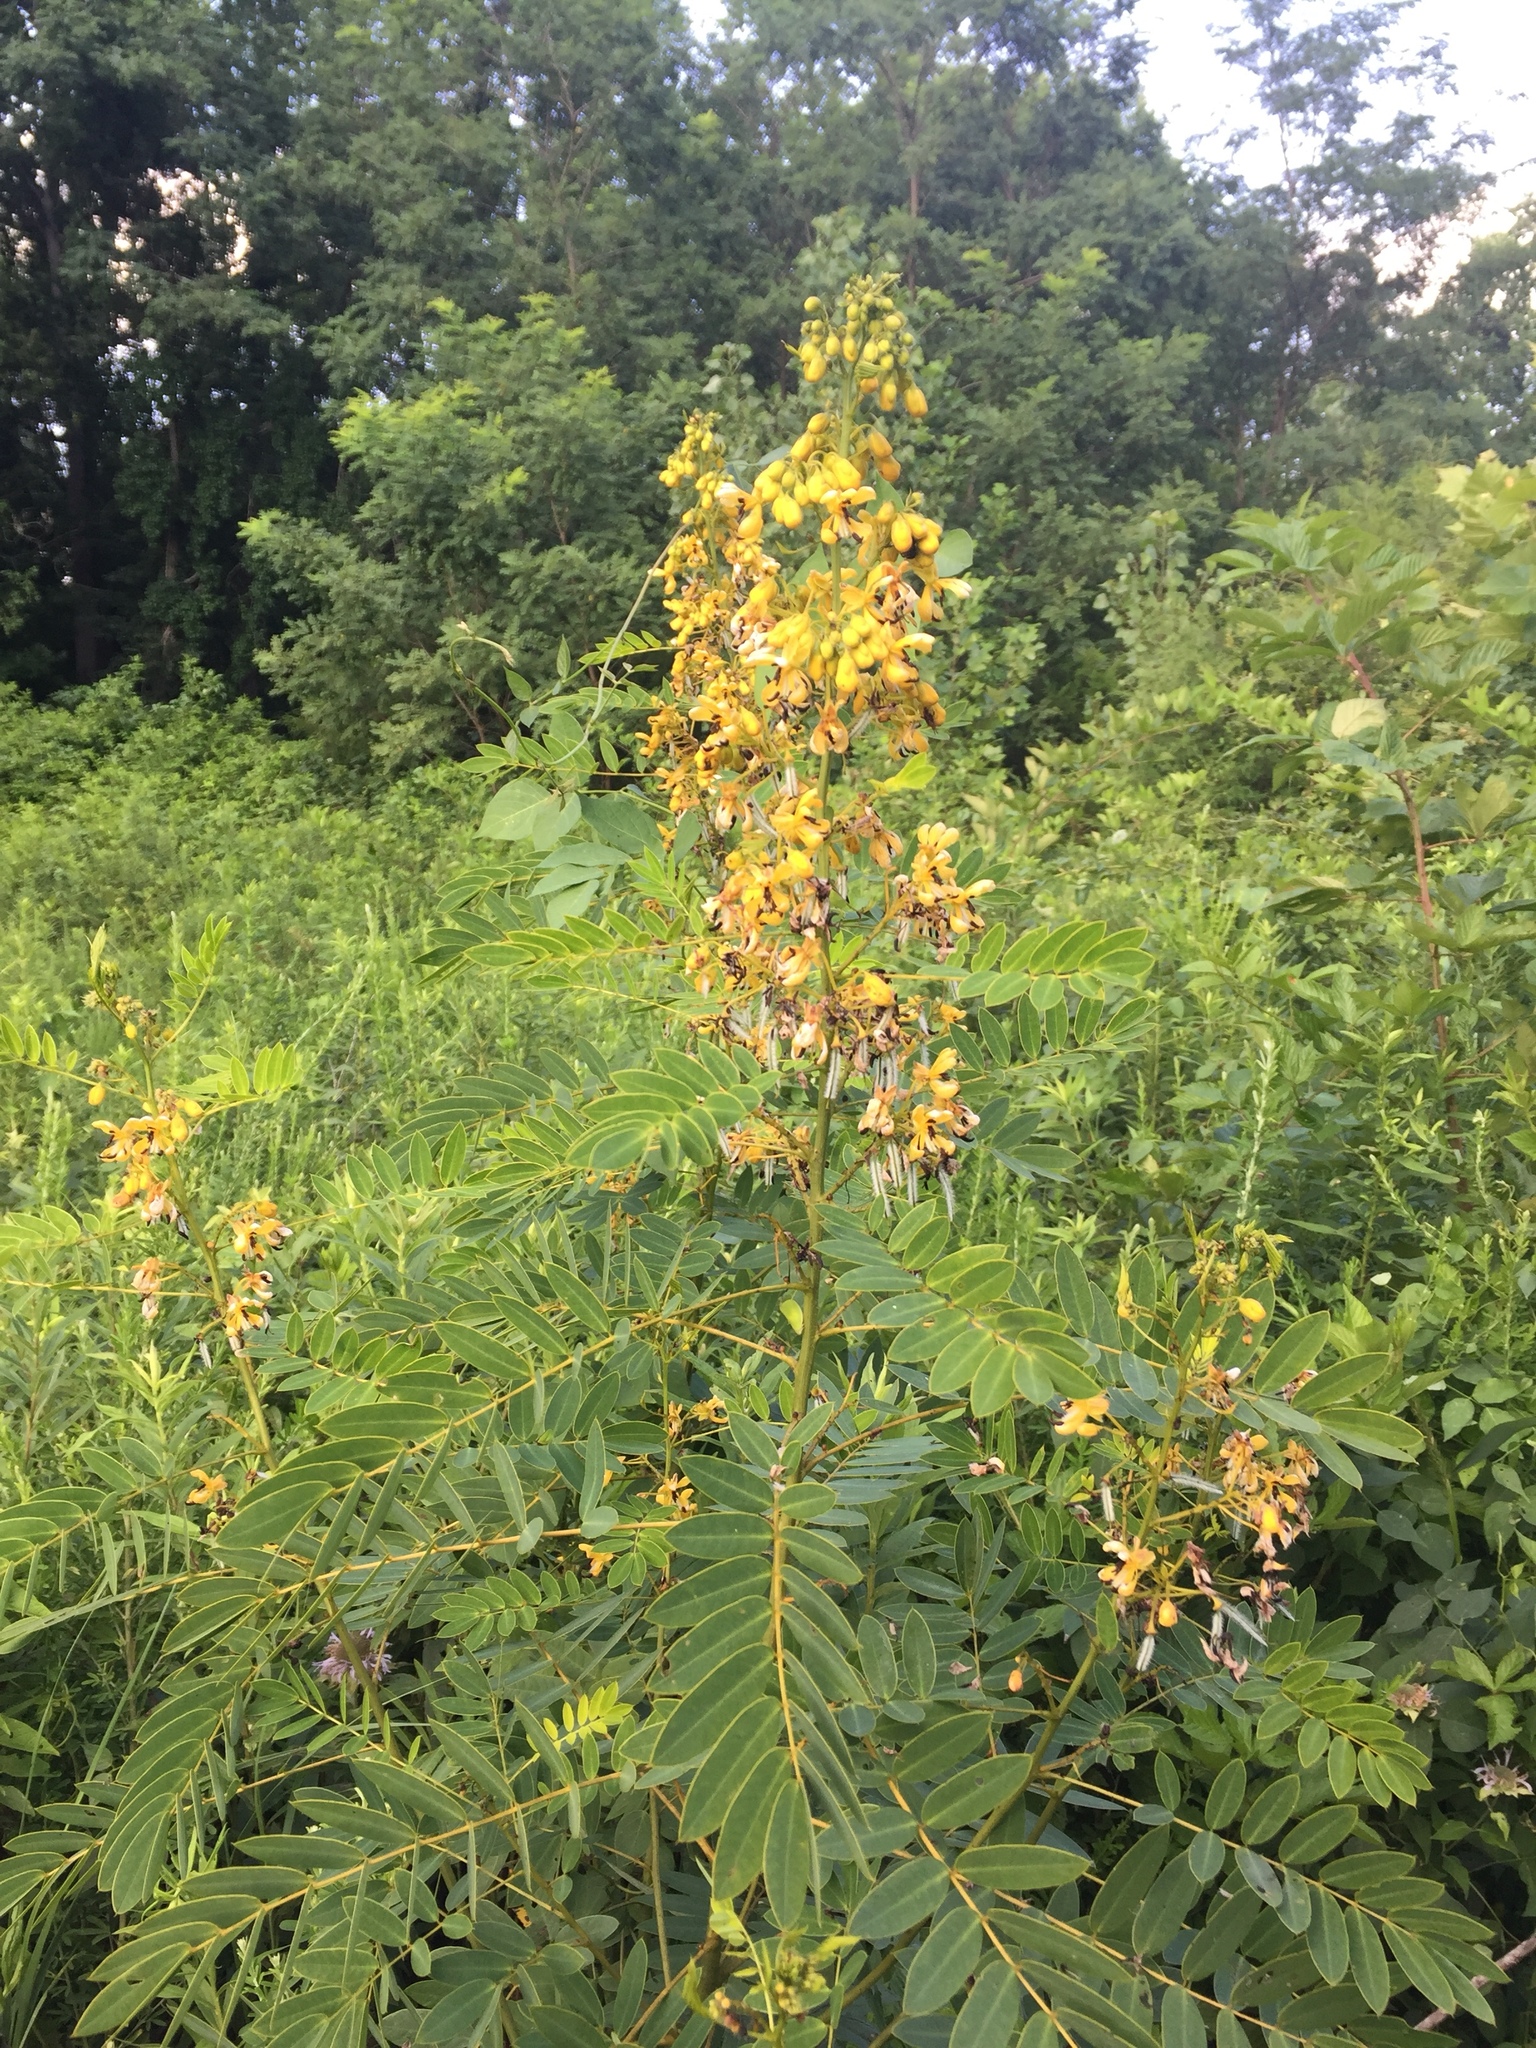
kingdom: Plantae
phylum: Tracheophyta
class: Magnoliopsida
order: Fabales
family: Fabaceae
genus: Senna
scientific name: Senna hebecarpa
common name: Wild senna
